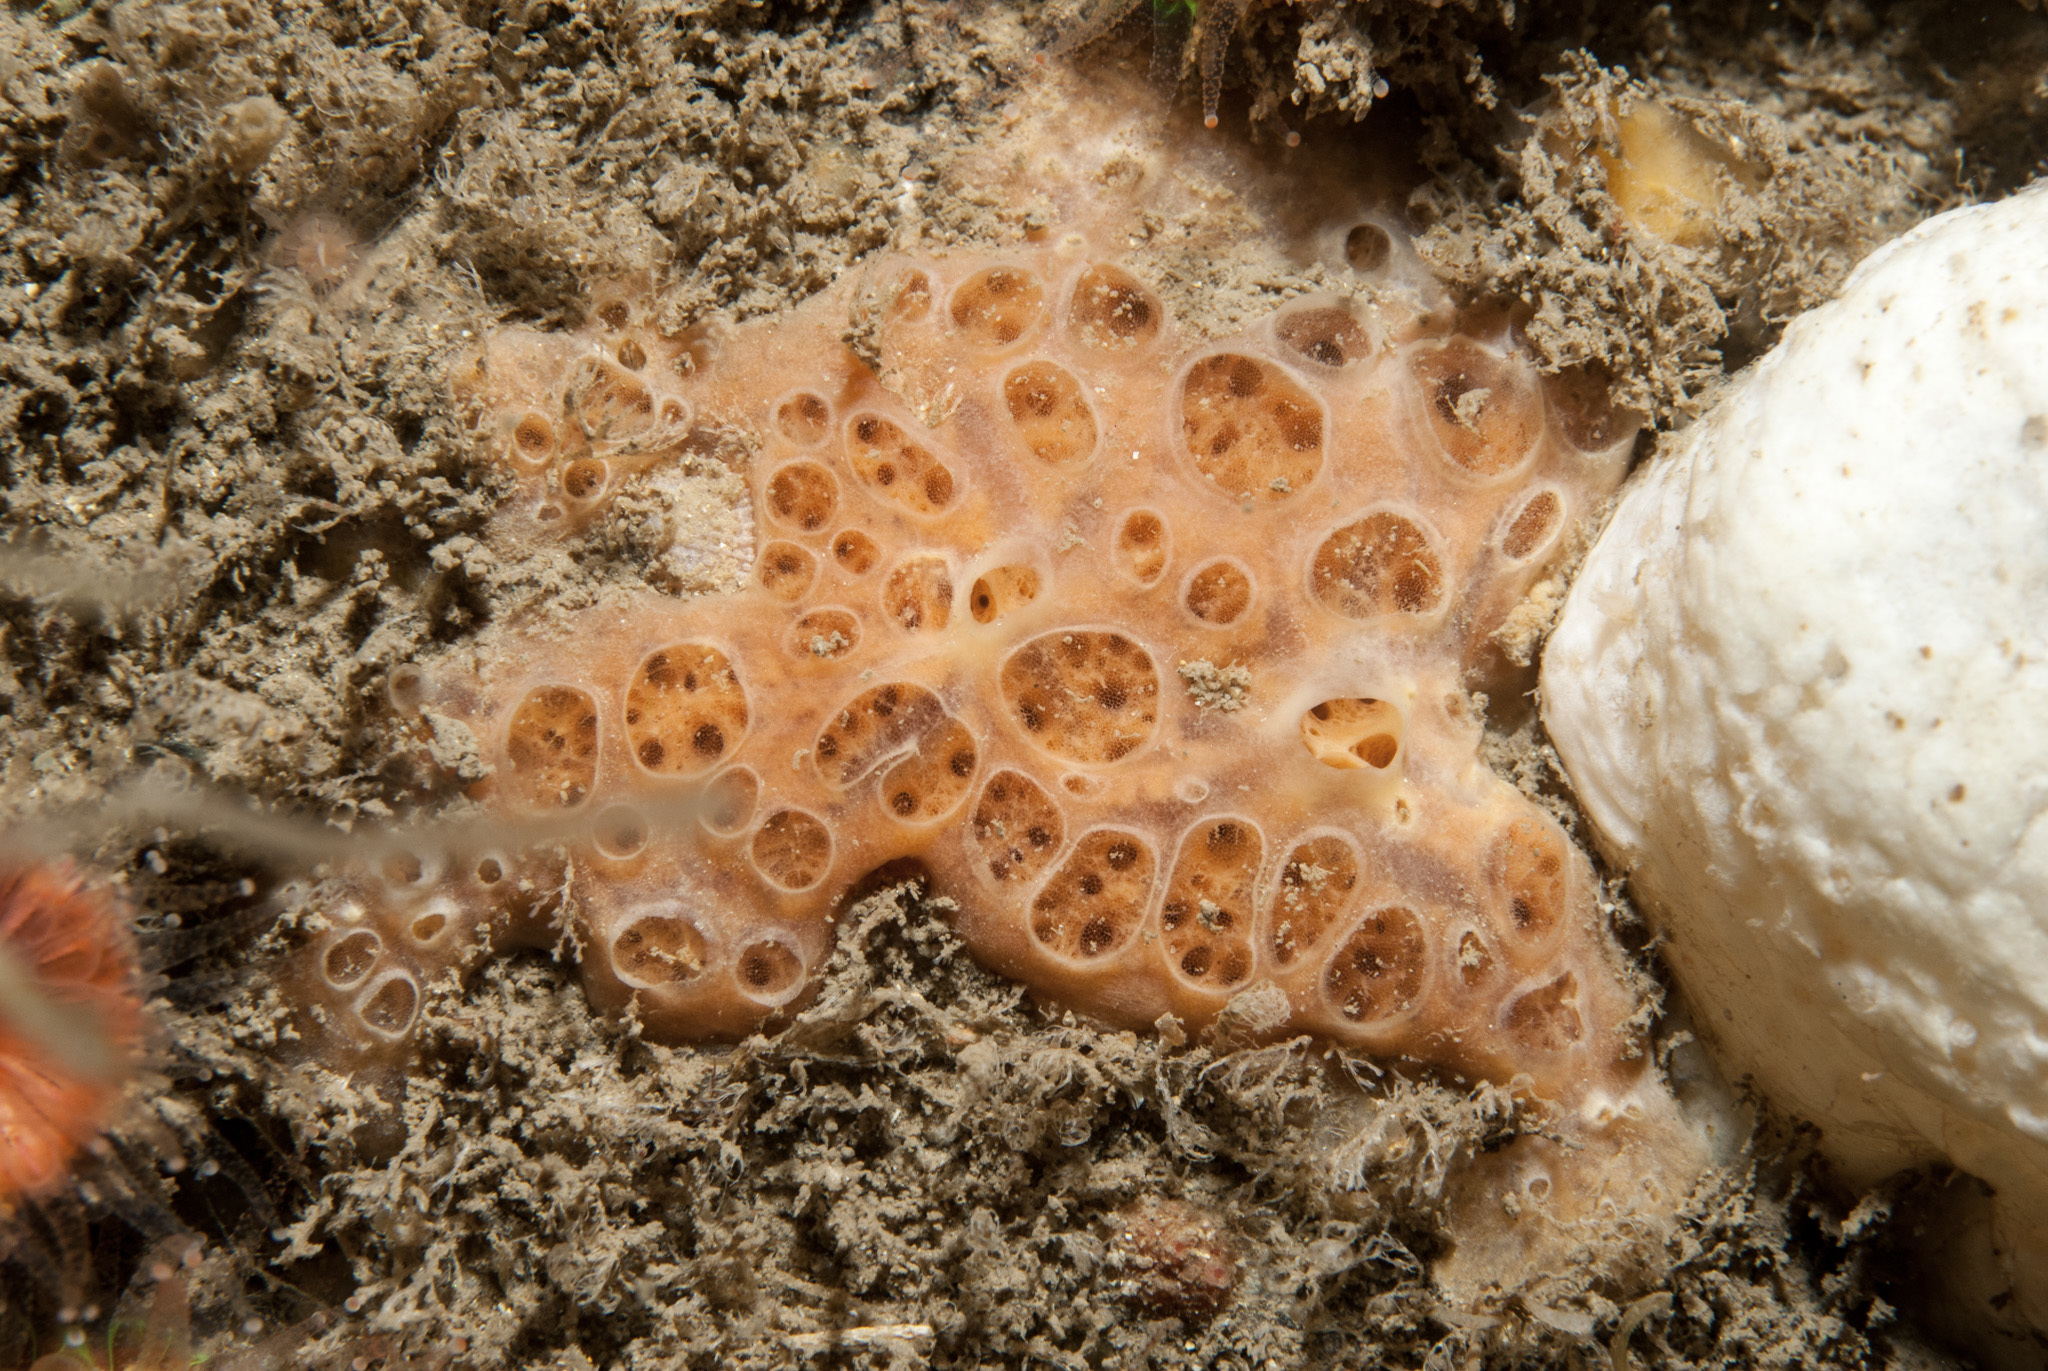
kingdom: Animalia
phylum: Porifera
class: Demospongiae
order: Poecilosclerida
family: Hymedesmiidae
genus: Hemimycale
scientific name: Hemimycale columella
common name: Crater sponge
